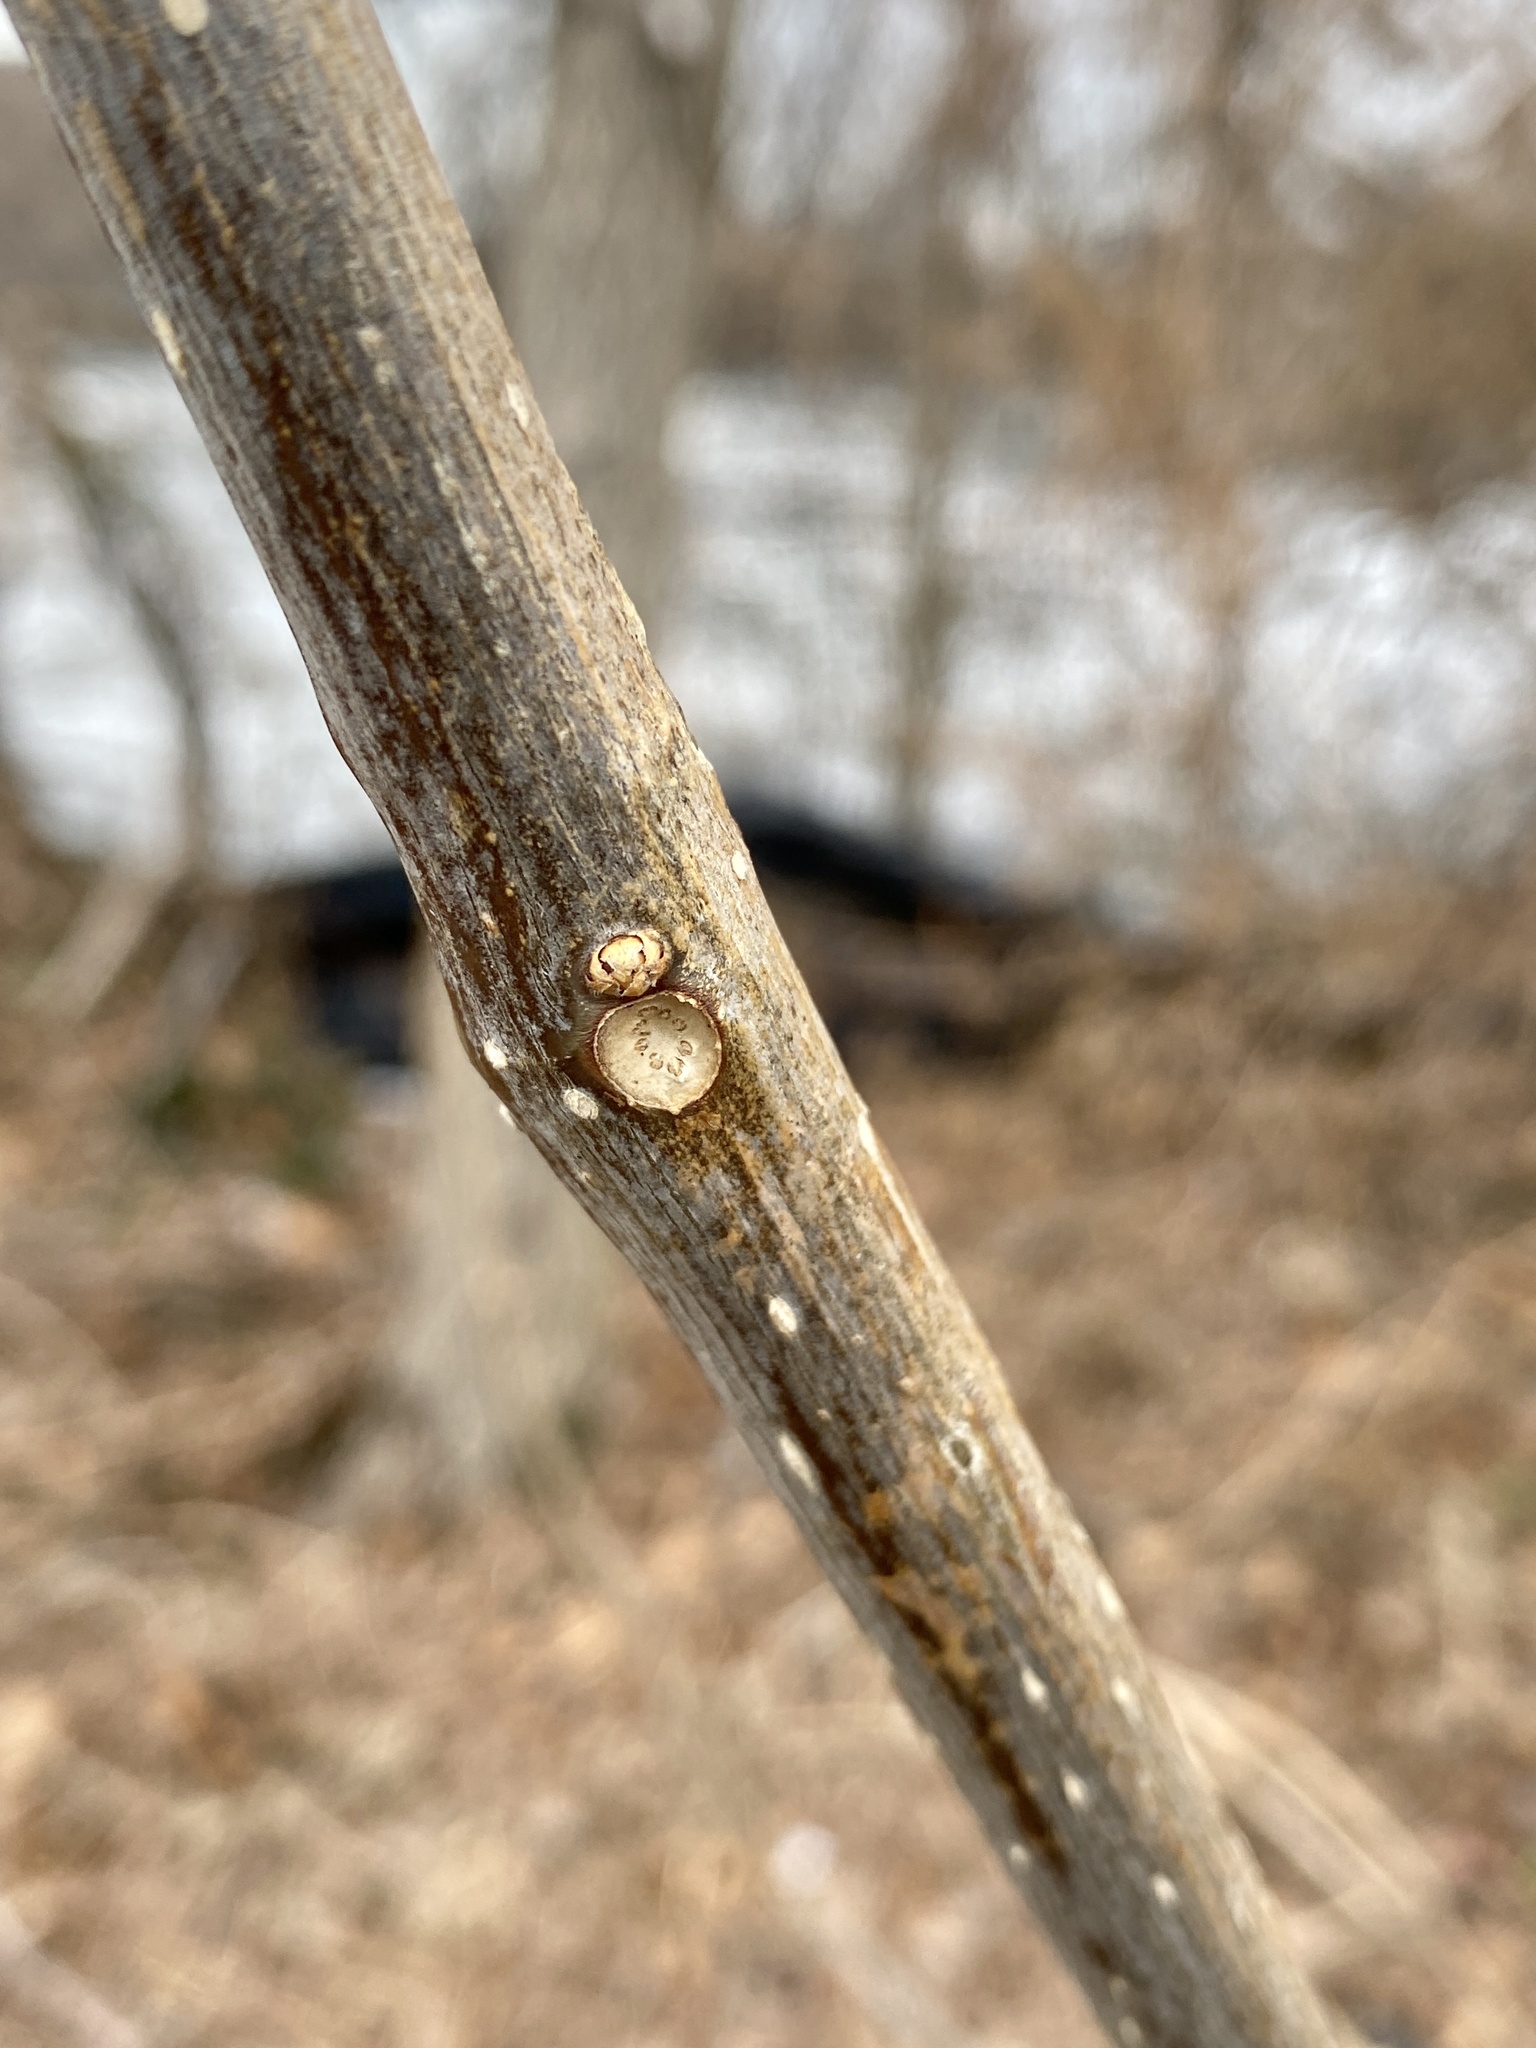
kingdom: Plantae
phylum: Tracheophyta
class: Magnoliopsida
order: Lamiales
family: Bignoniaceae
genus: Catalpa
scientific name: Catalpa
